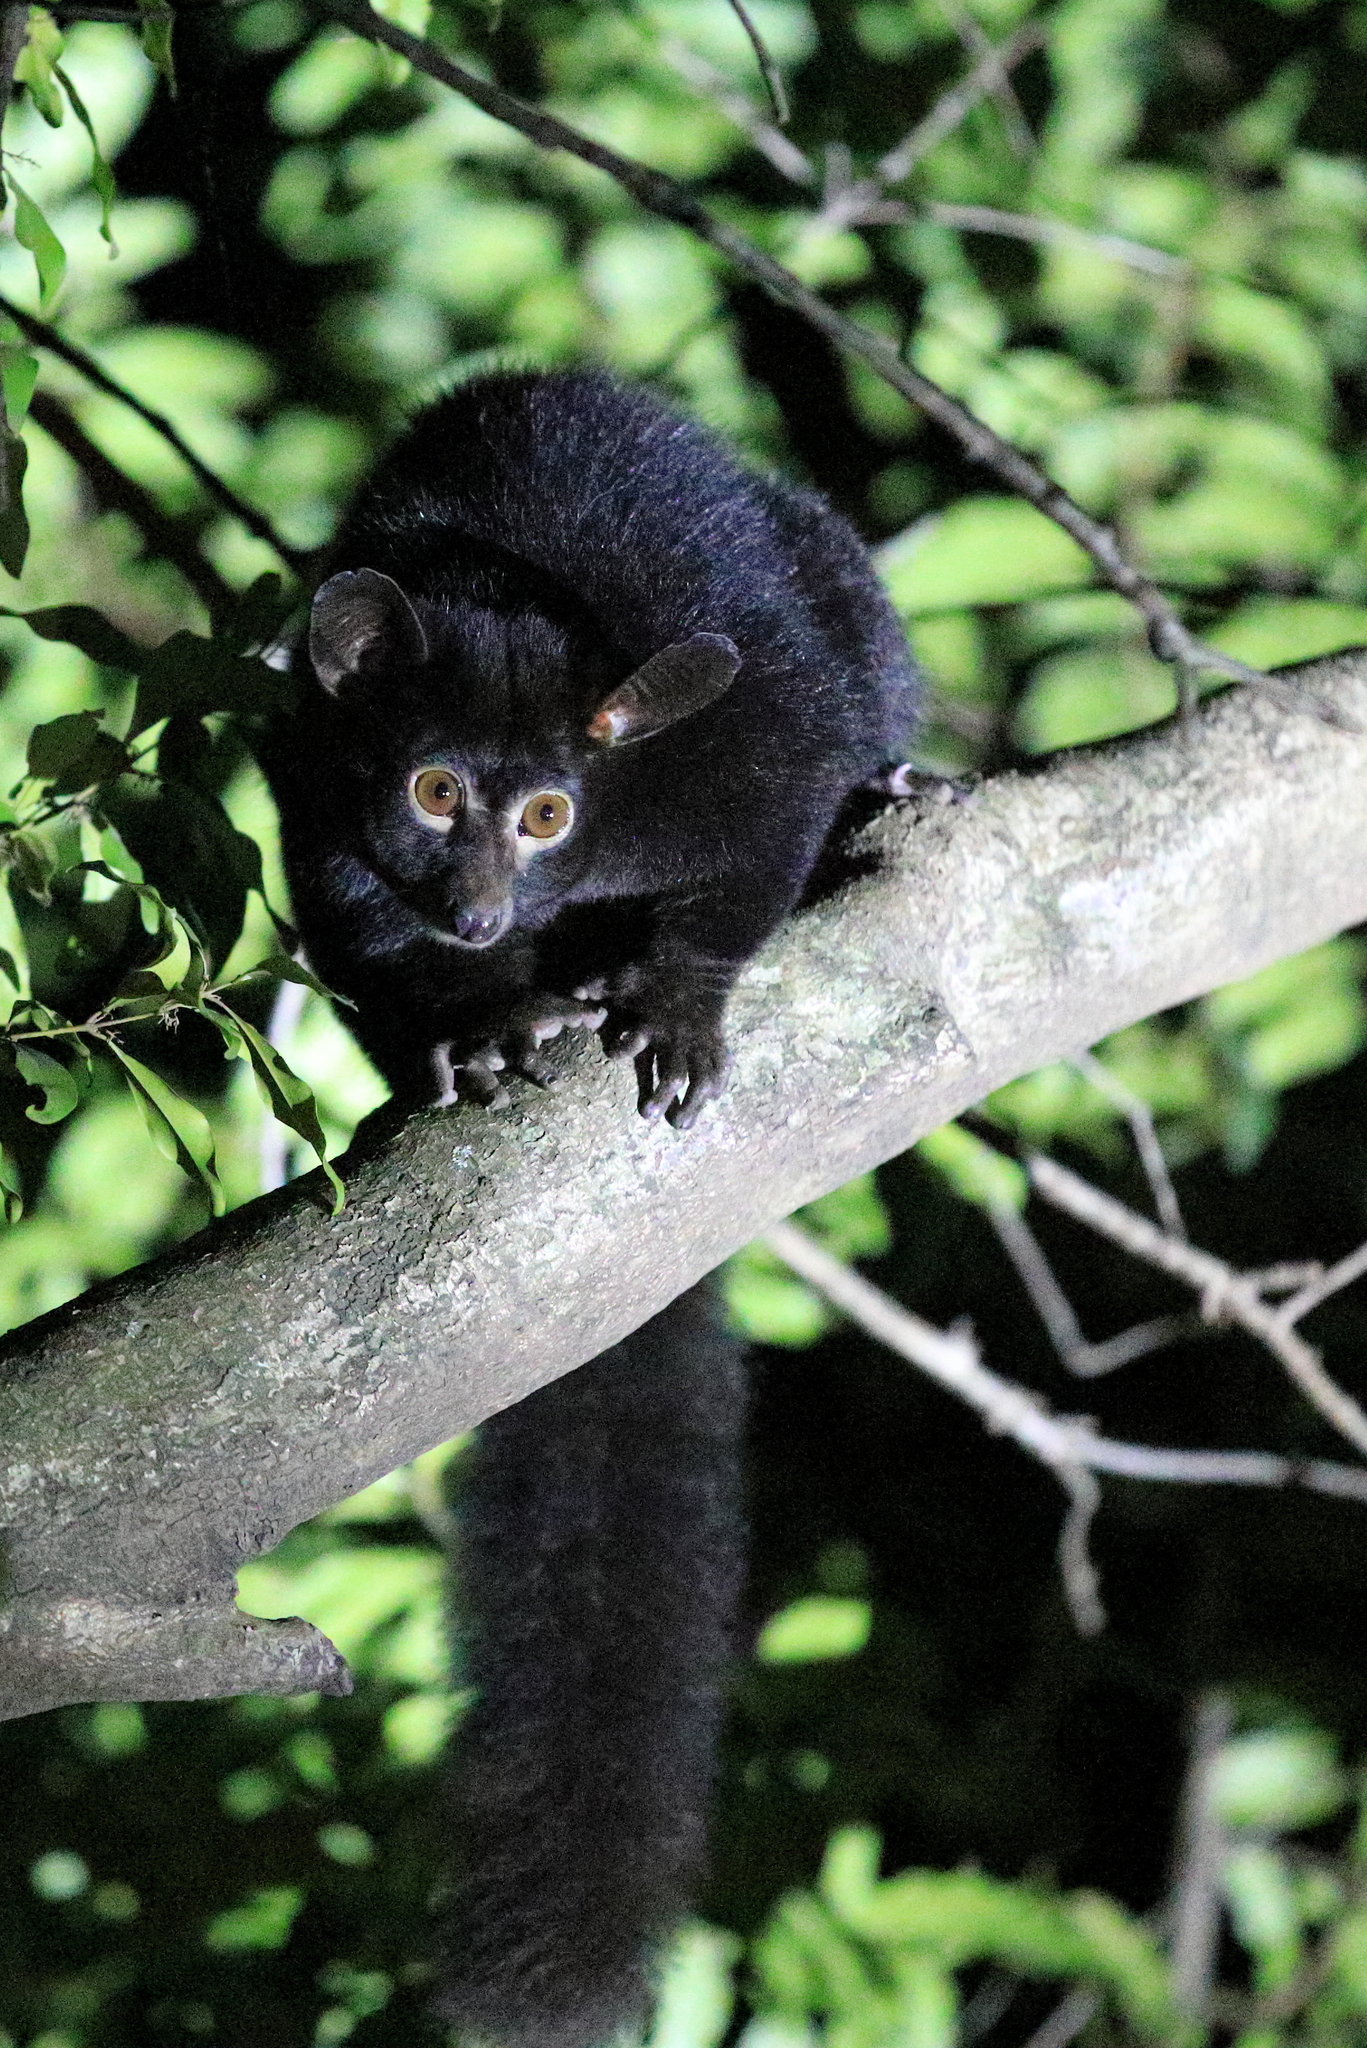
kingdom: Animalia
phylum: Chordata
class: Mammalia
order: Primates
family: Galagidae
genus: Otolemur
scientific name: Otolemur crassicaudatus
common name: Brown greater galago
